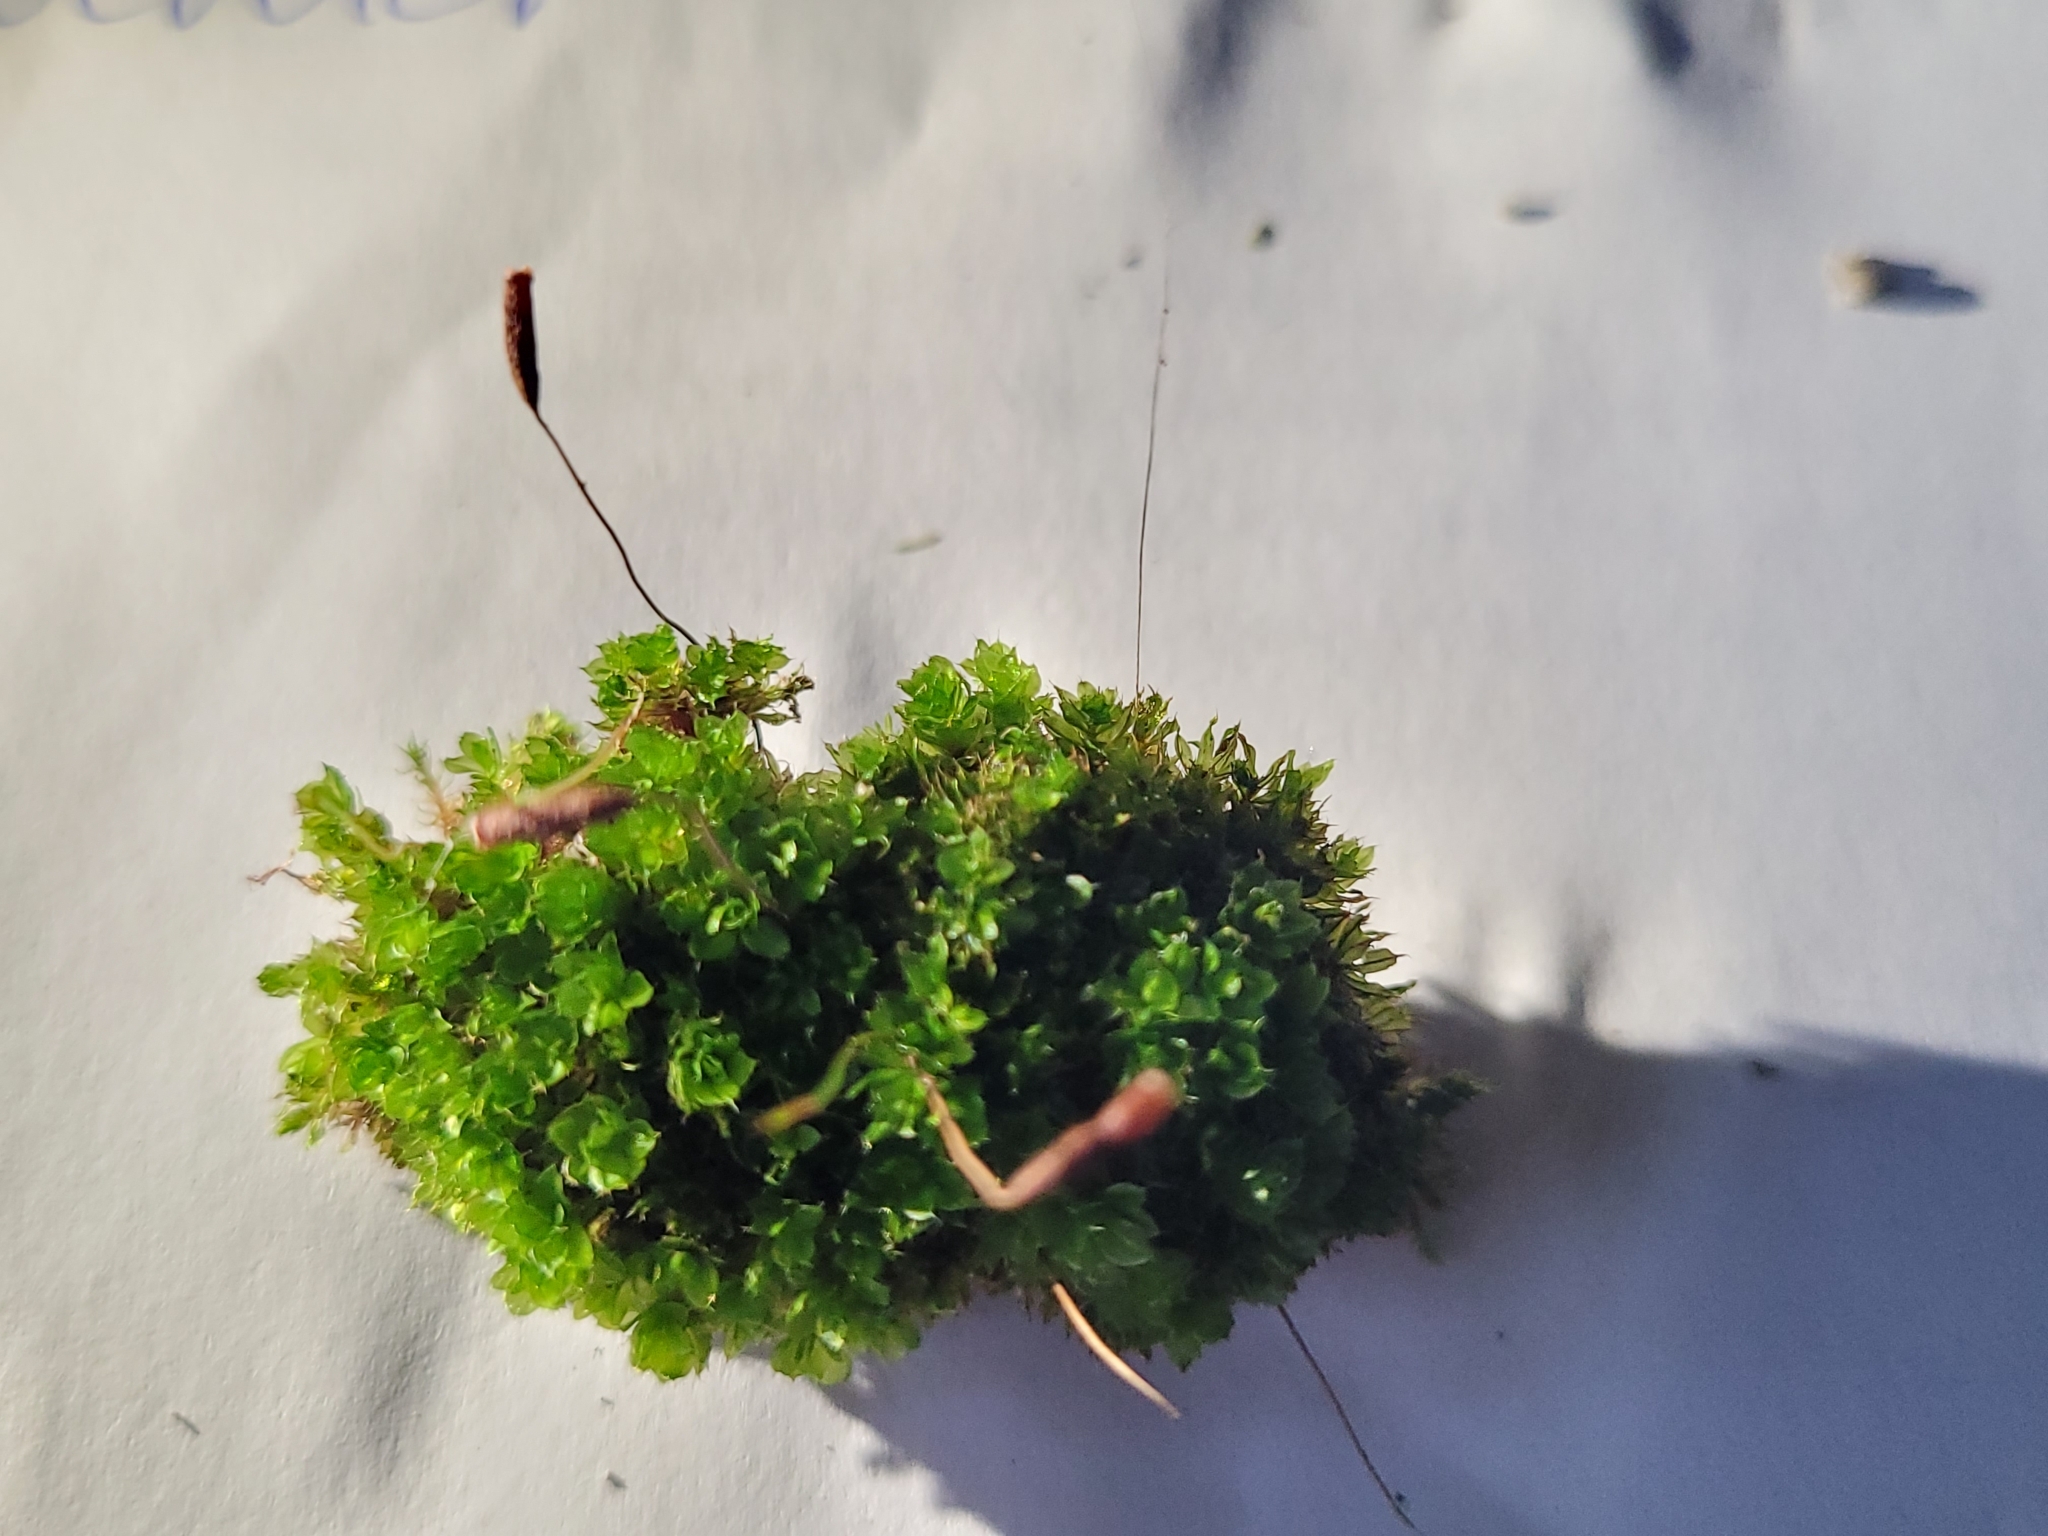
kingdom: Plantae
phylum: Bryophyta
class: Bryopsida
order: Bryales
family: Bryaceae
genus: Rosulabryum
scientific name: Rosulabryum capillare
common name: Capillary thread-moss
